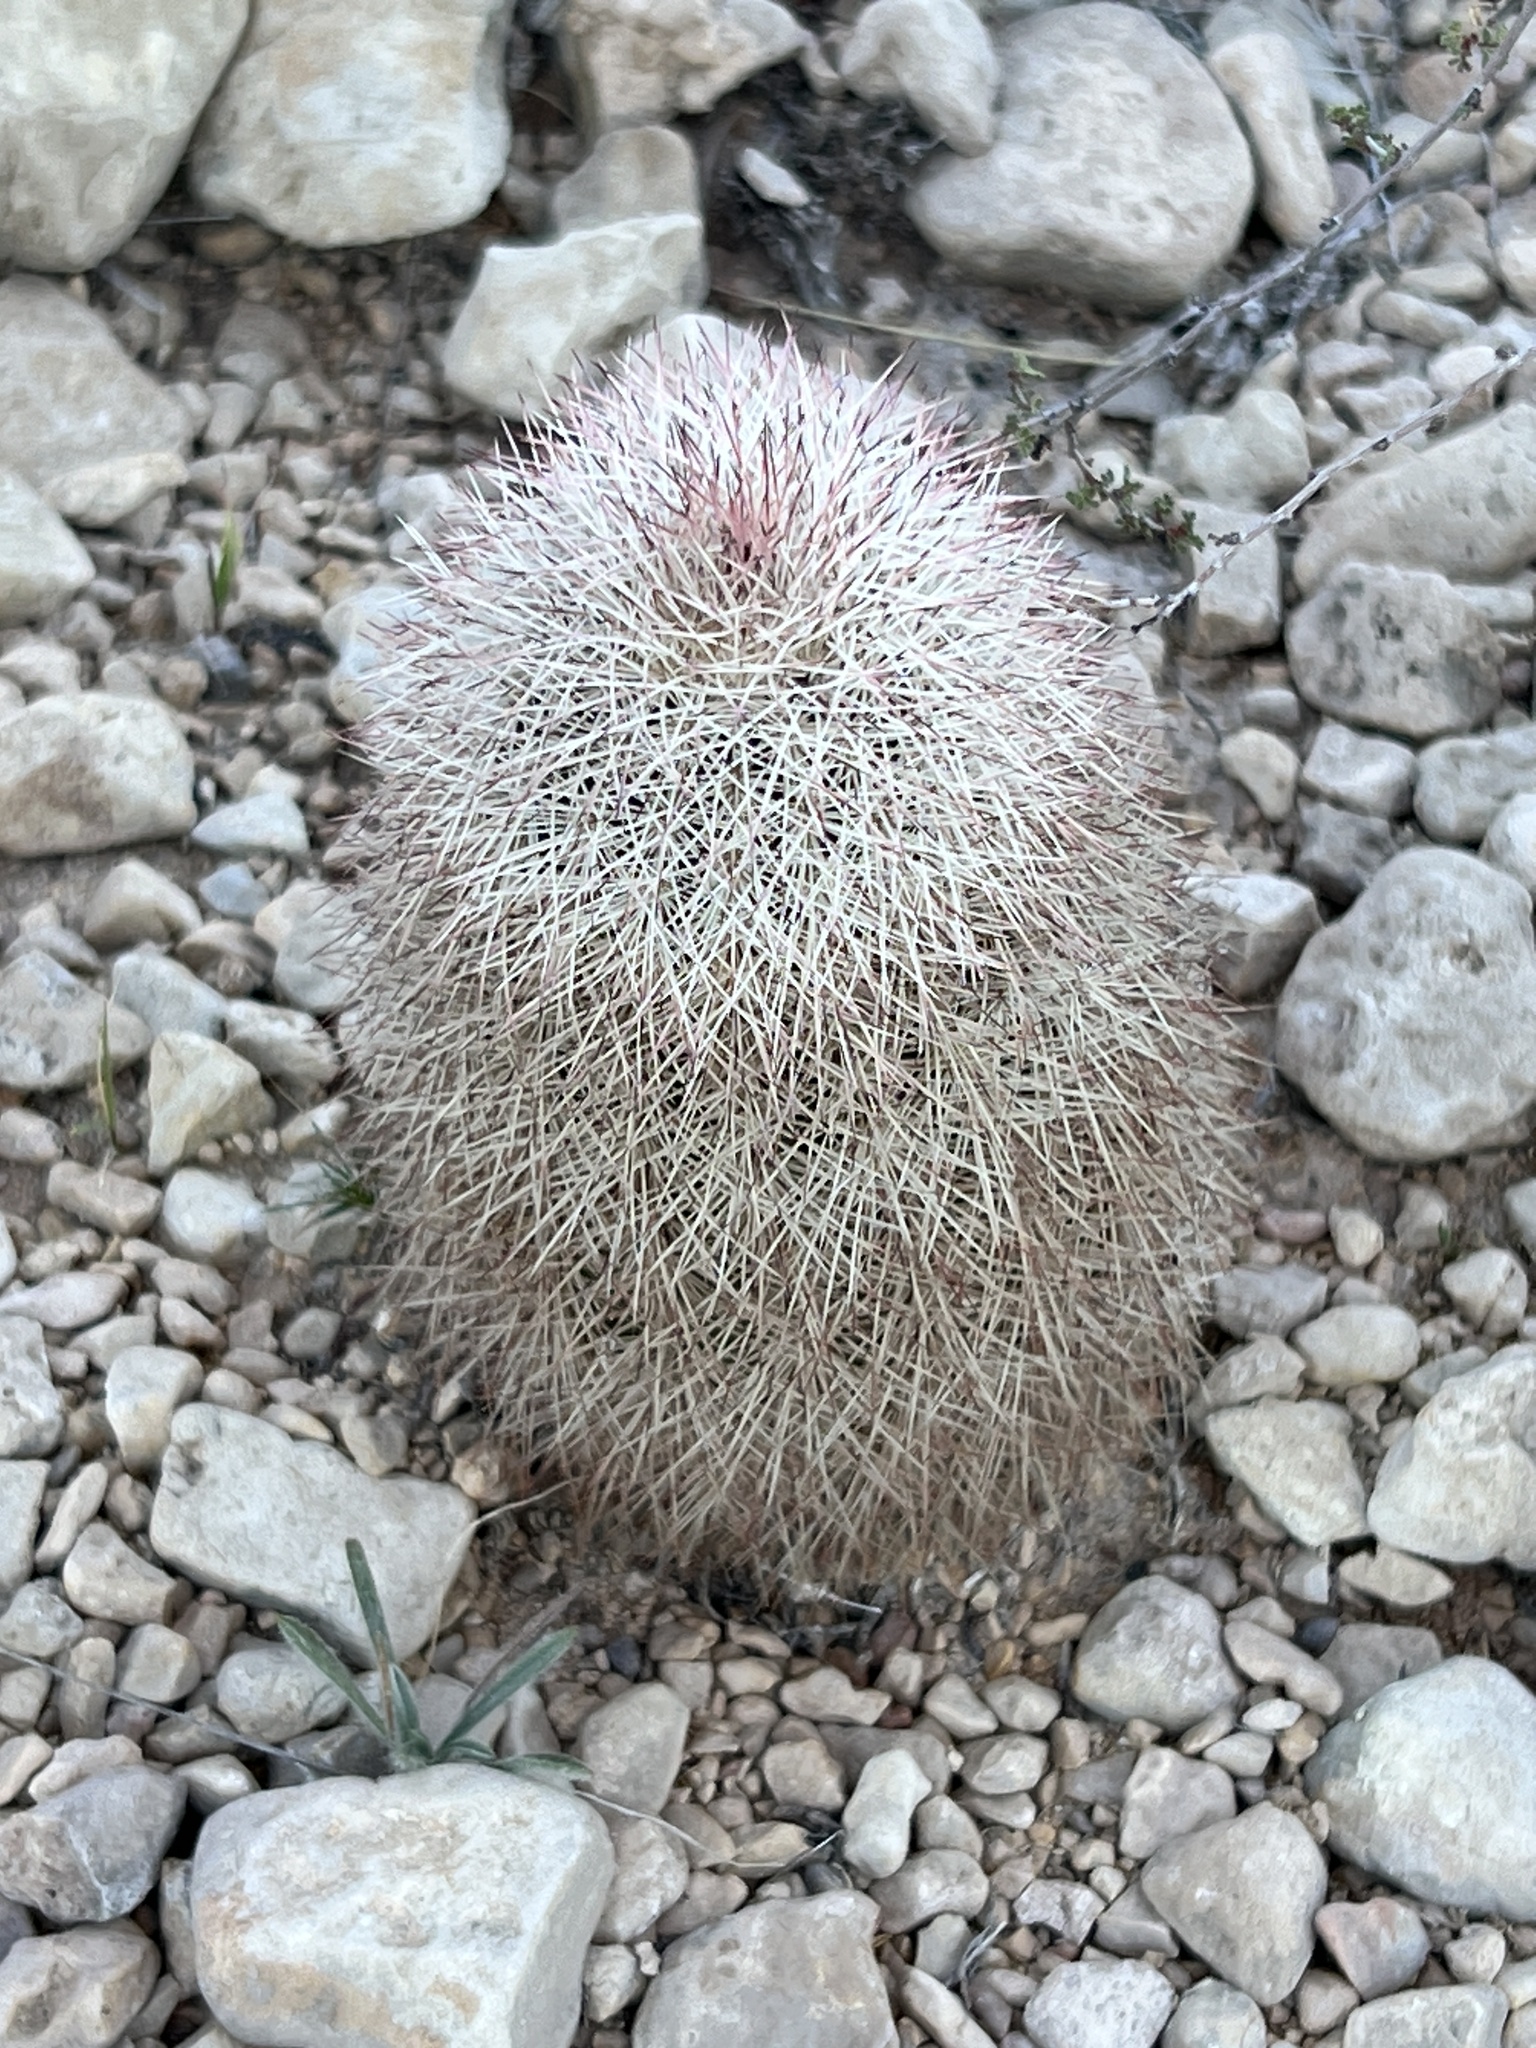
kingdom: Plantae
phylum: Tracheophyta
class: Magnoliopsida
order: Caryophyllales
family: Cactaceae
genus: Echinocereus
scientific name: Echinocereus dasyacanthus
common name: Spiny hedgehog cactus
